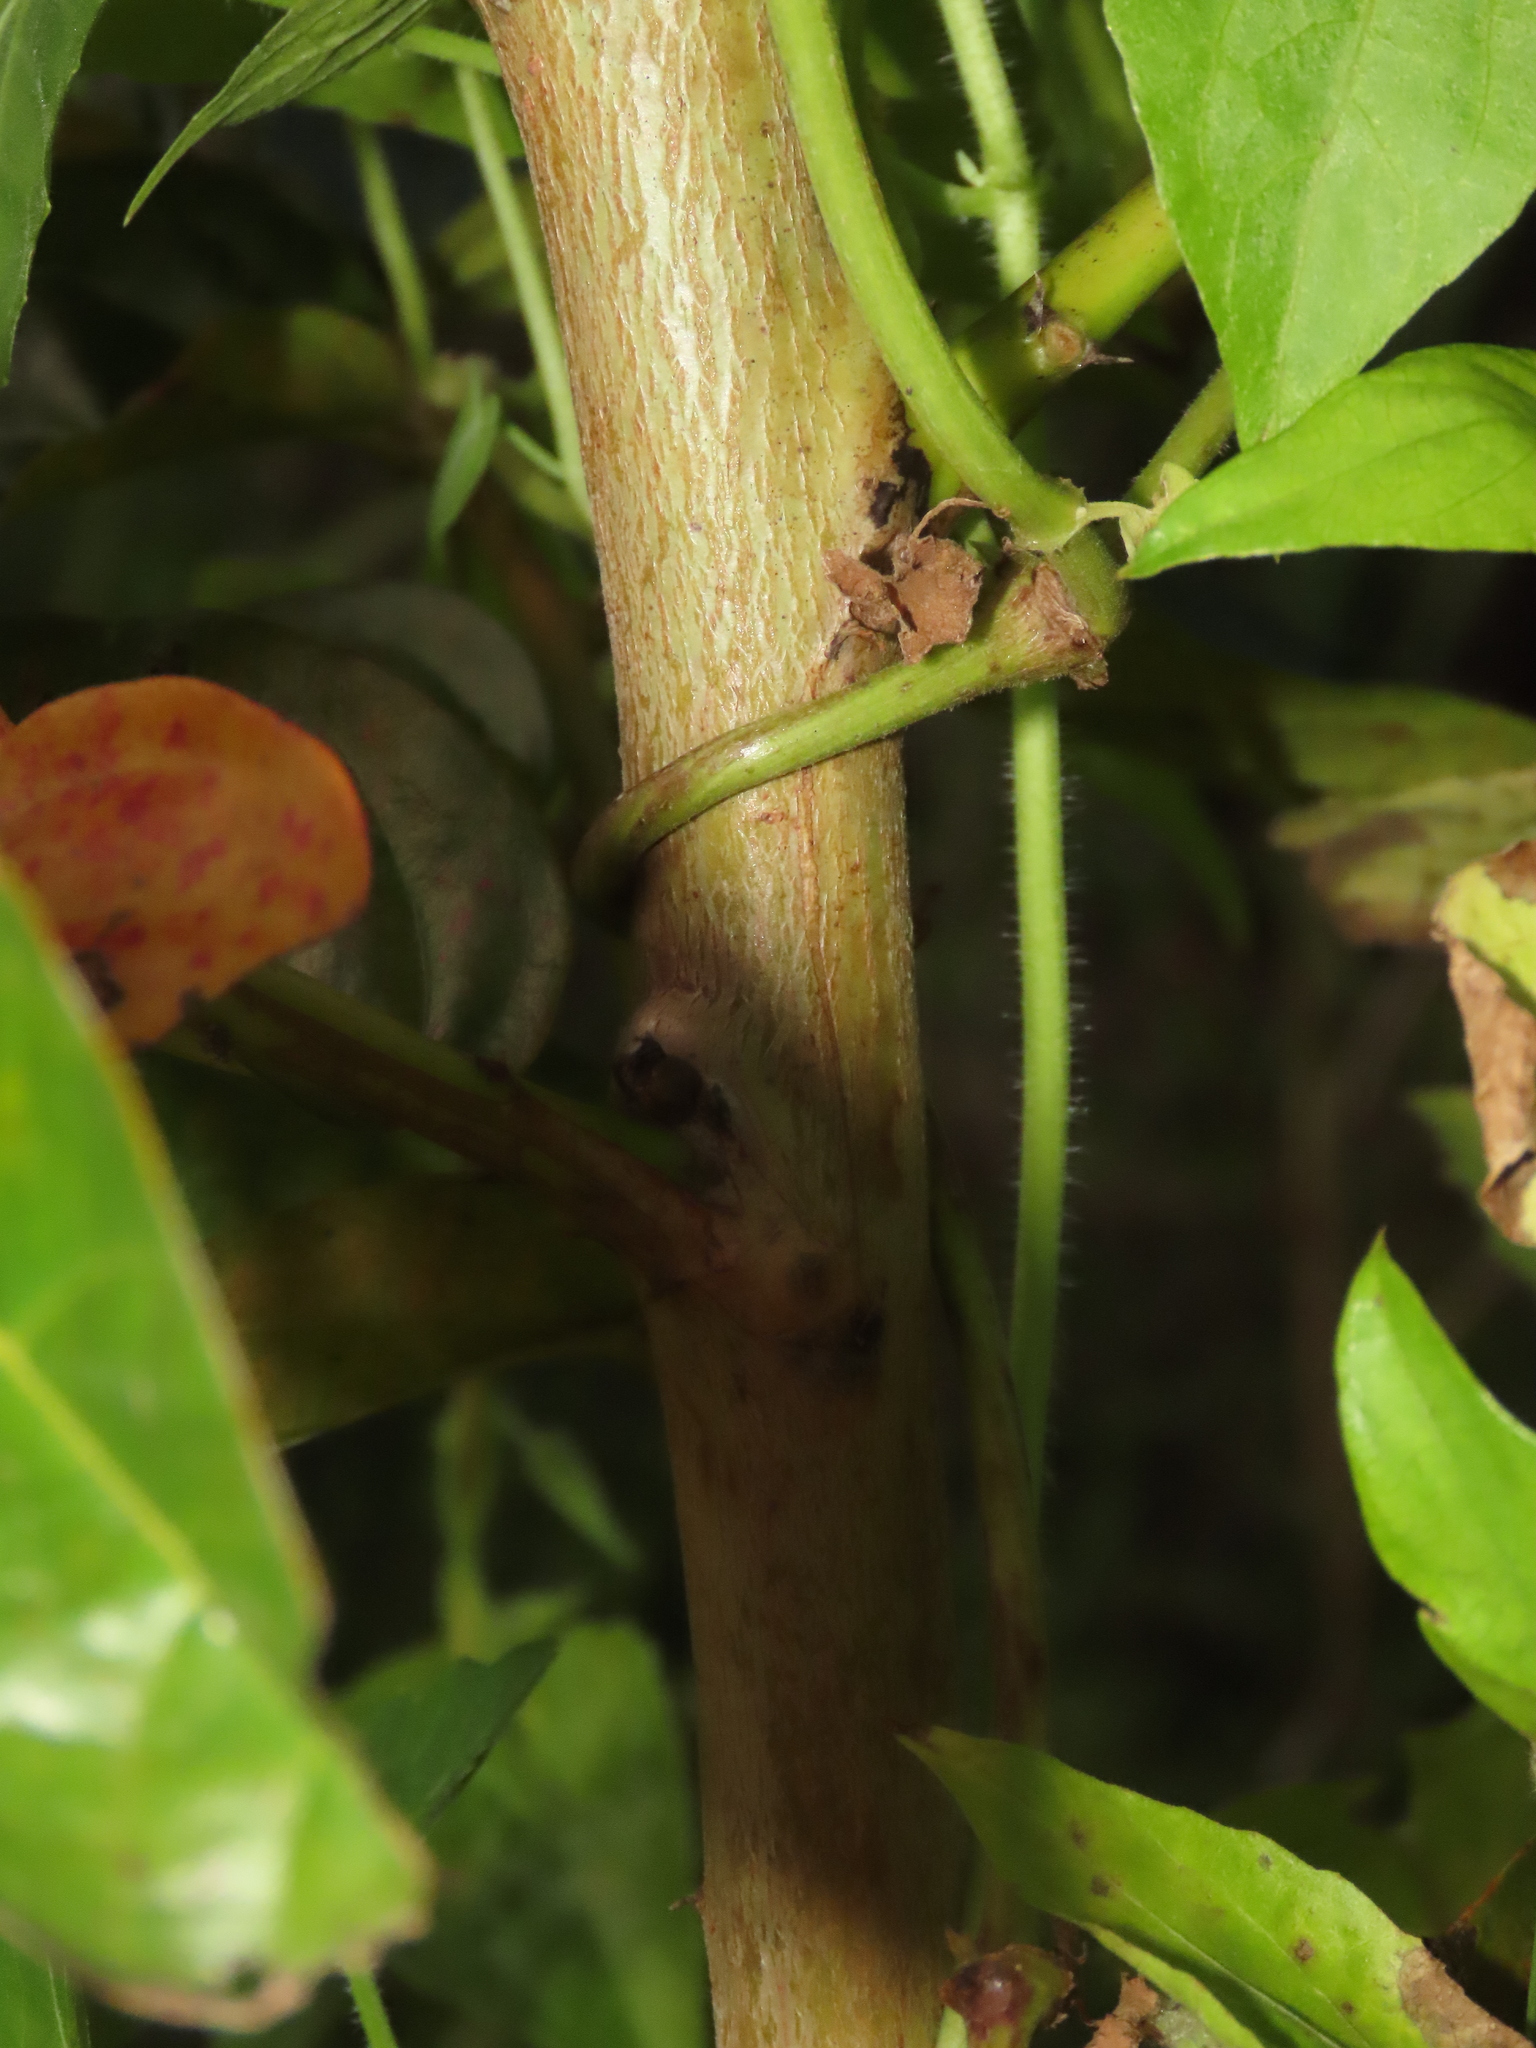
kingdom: Plantae
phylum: Tracheophyta
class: Magnoliopsida
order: Malpighiales
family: Phyllanthaceae
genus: Glochidion
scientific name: Glochidion zeylanicum
